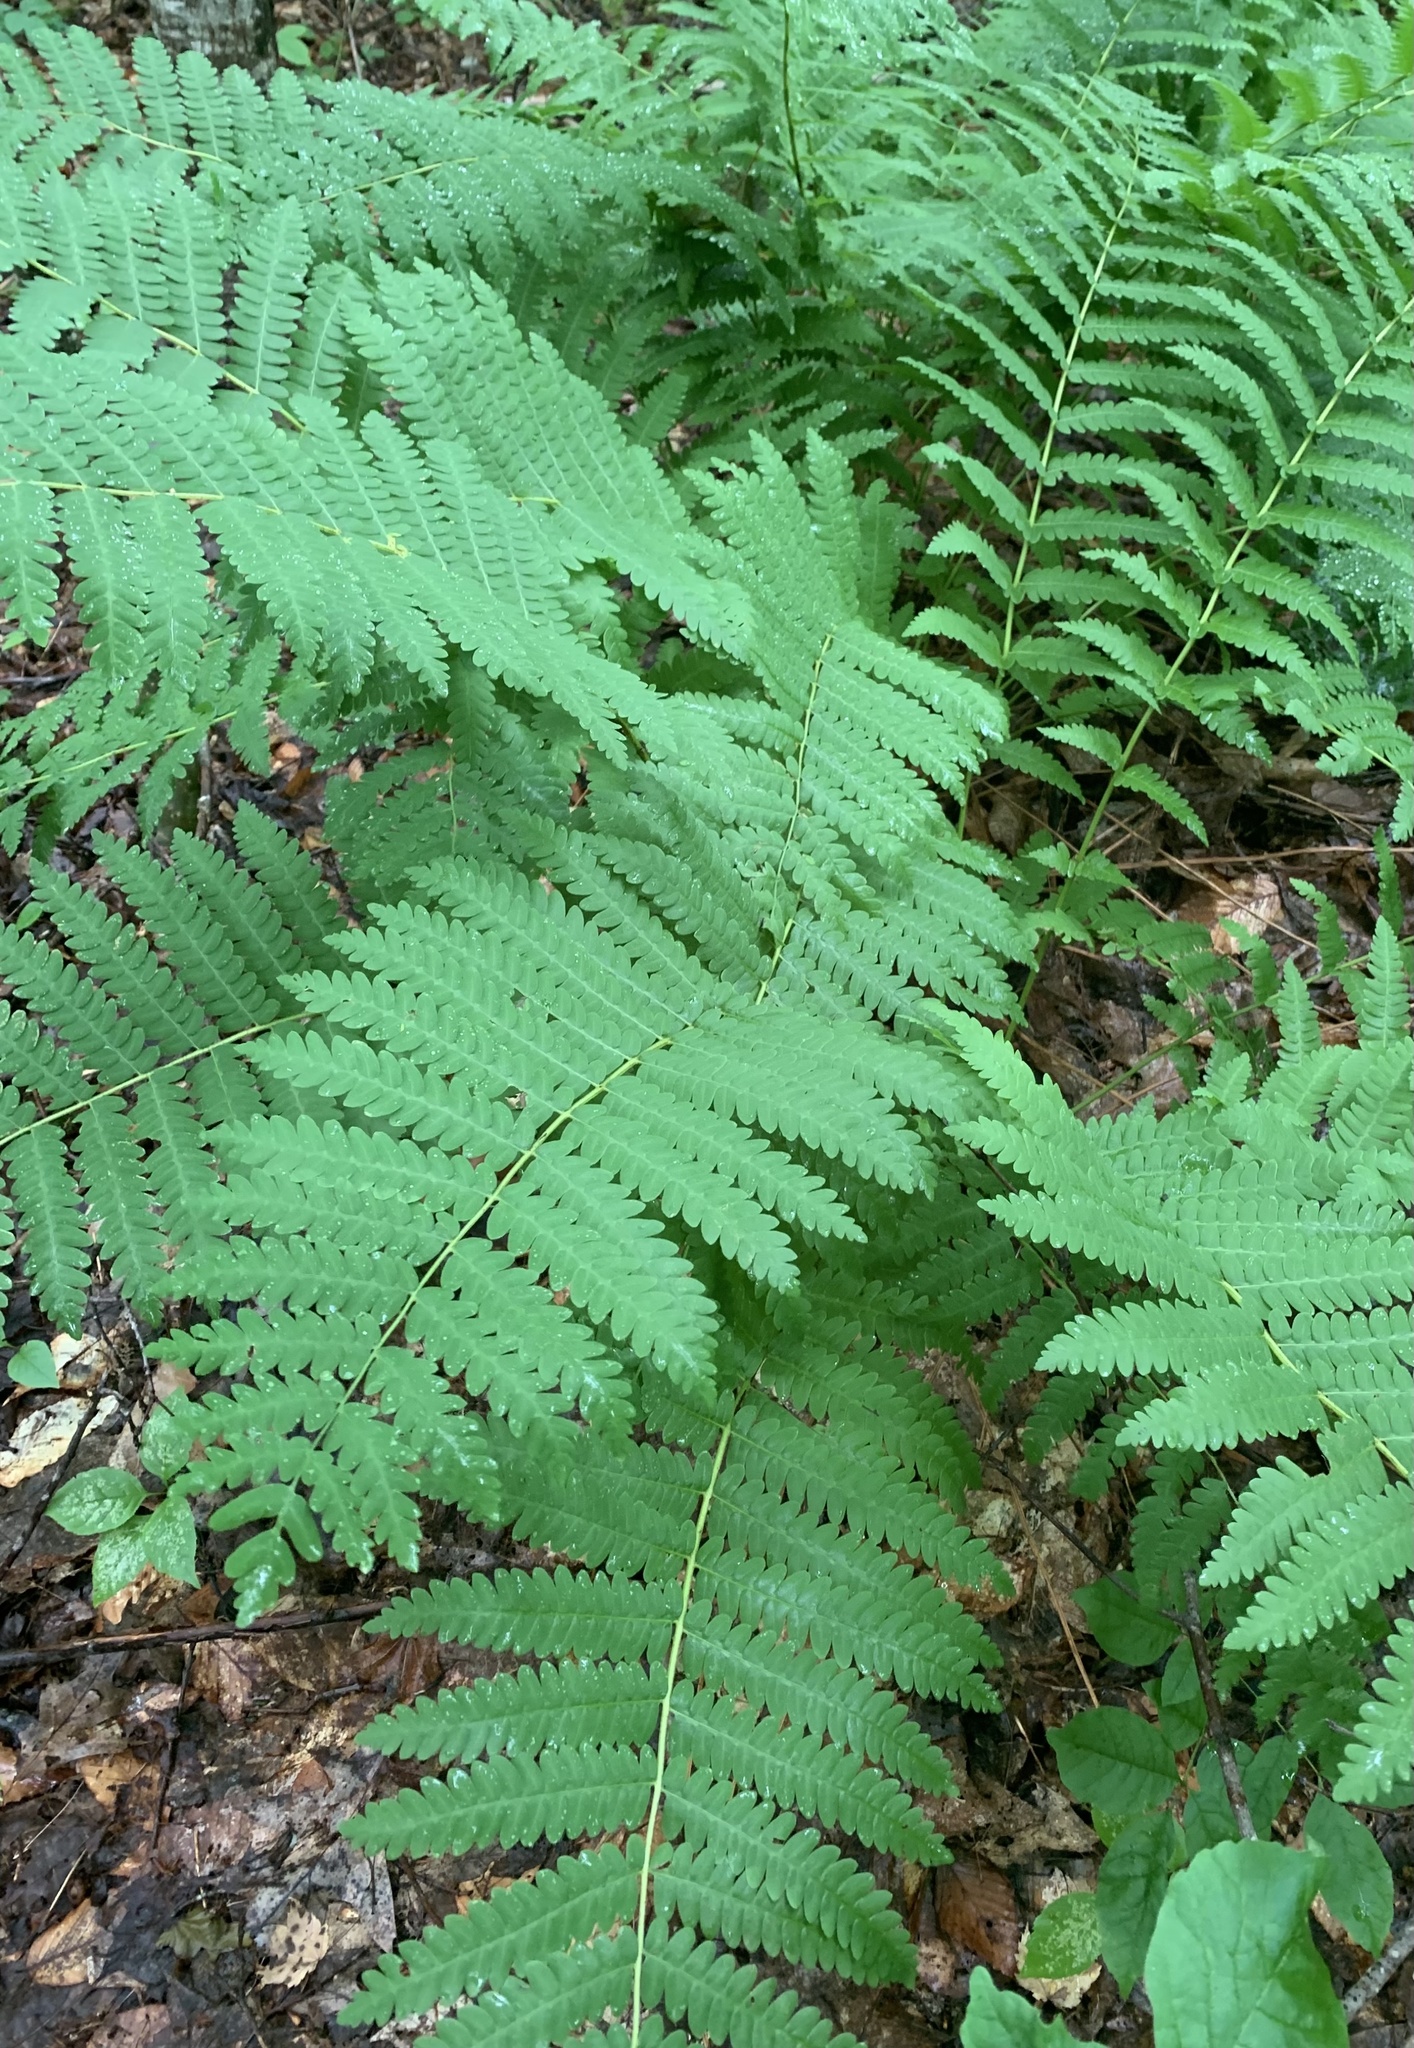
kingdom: Plantae
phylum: Tracheophyta
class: Polypodiopsida
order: Osmundales
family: Osmundaceae
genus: Claytosmunda
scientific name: Claytosmunda claytoniana
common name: Clayton's fern
